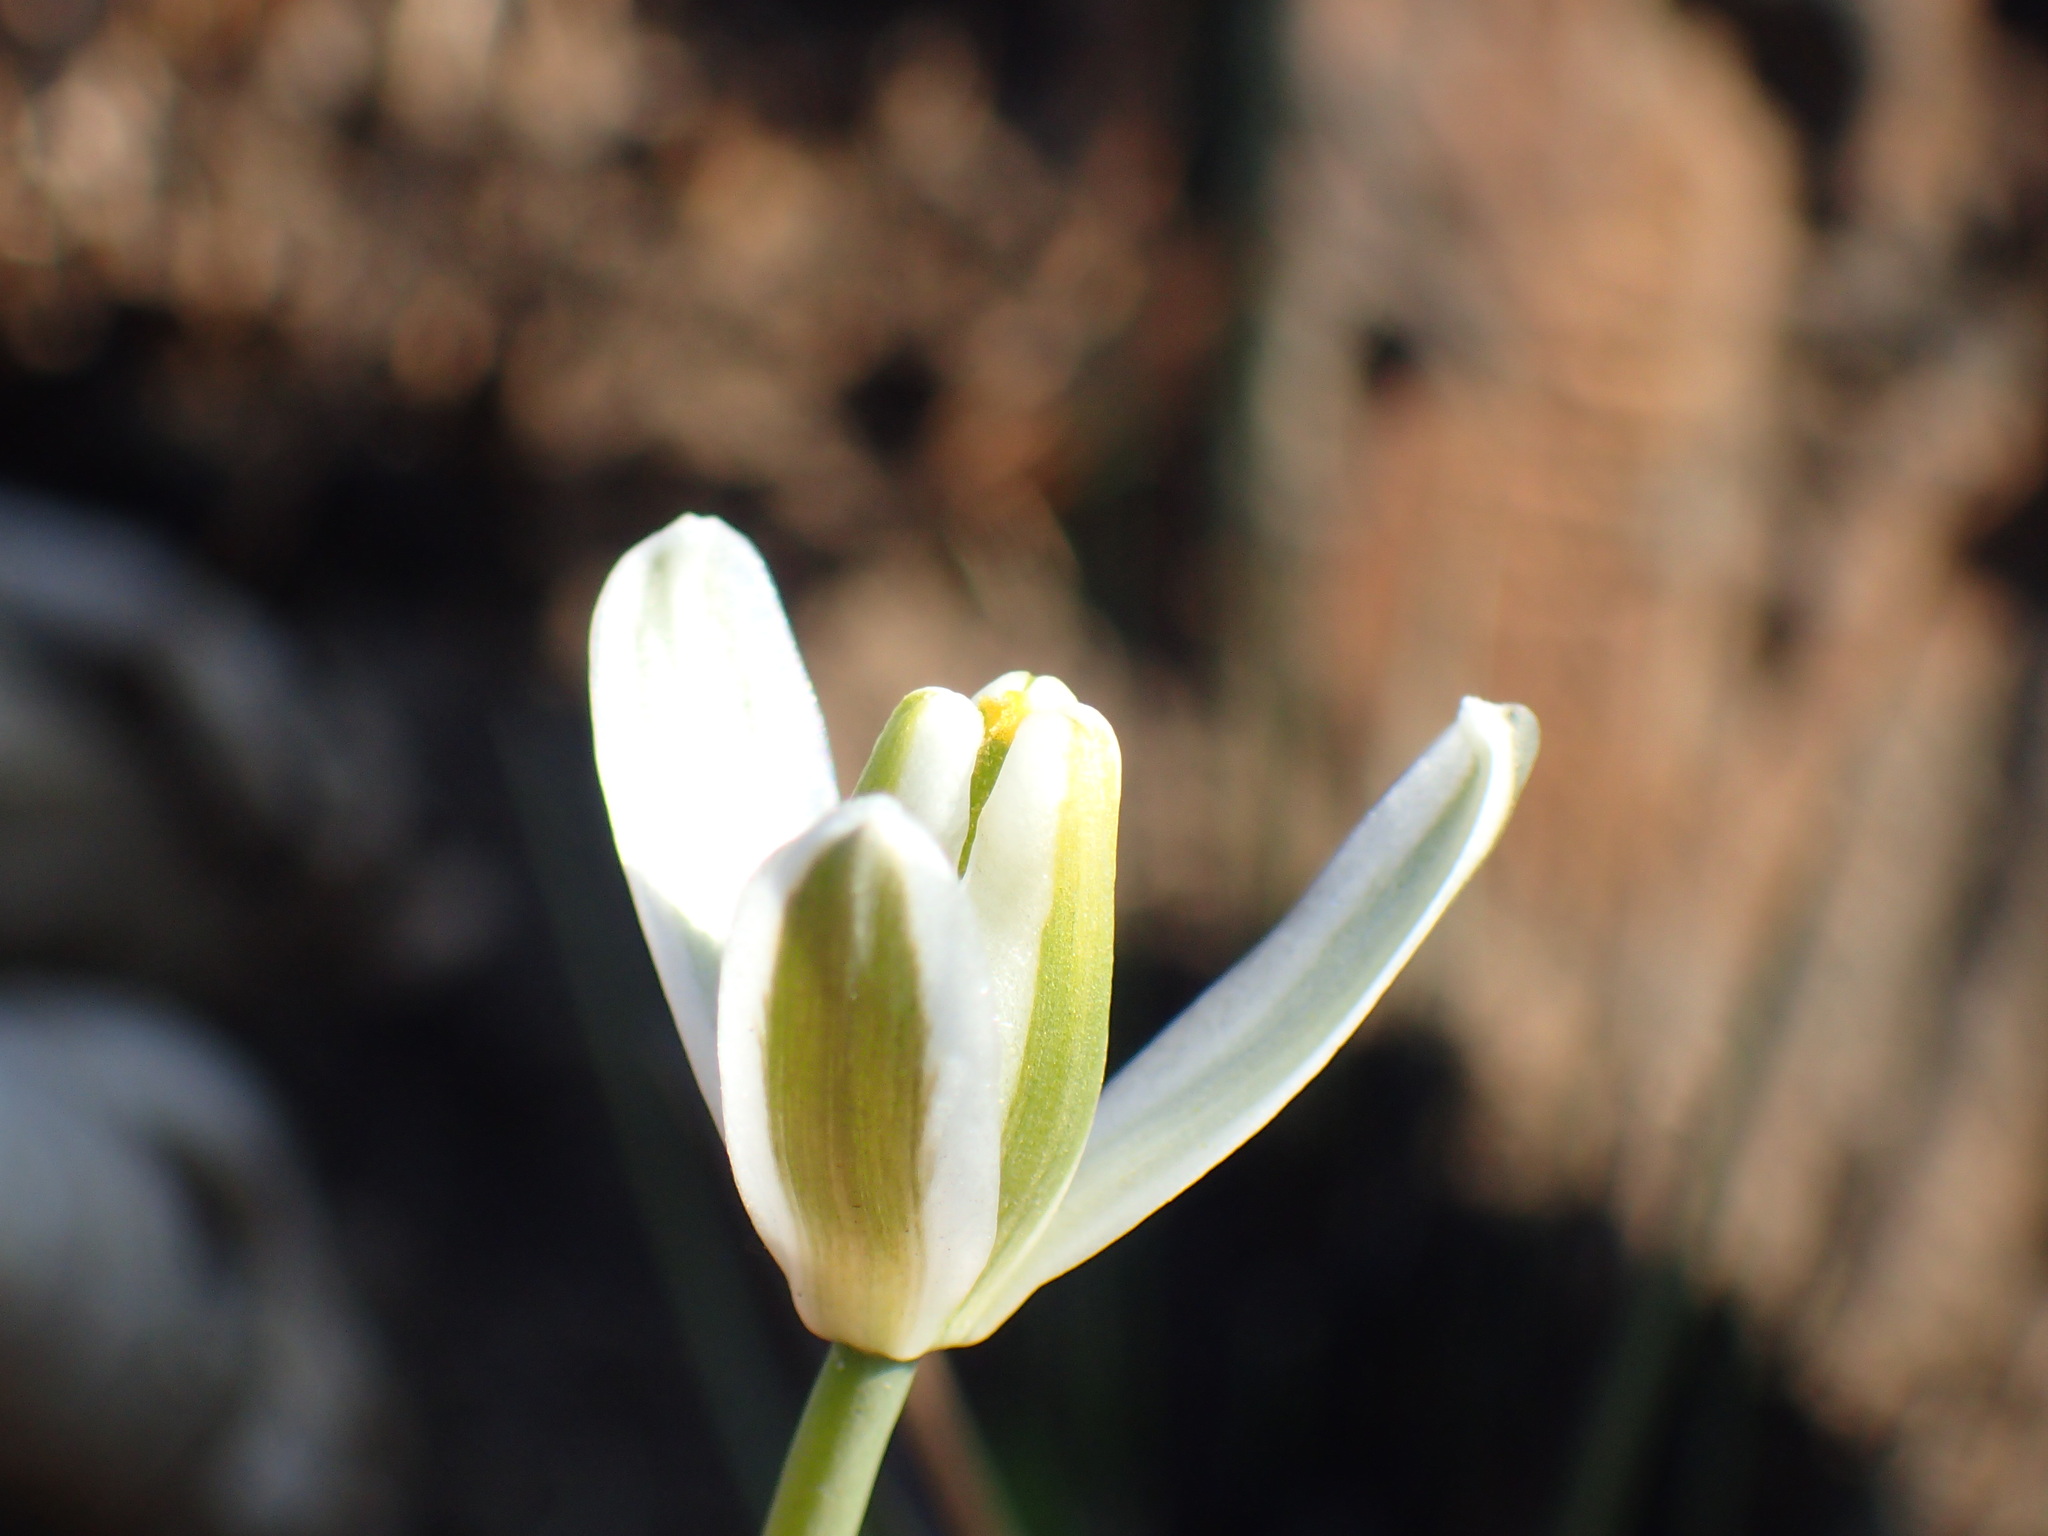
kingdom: Plantae
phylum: Tracheophyta
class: Liliopsida
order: Asparagales
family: Asparagaceae
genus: Albuca
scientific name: Albuca setosa
